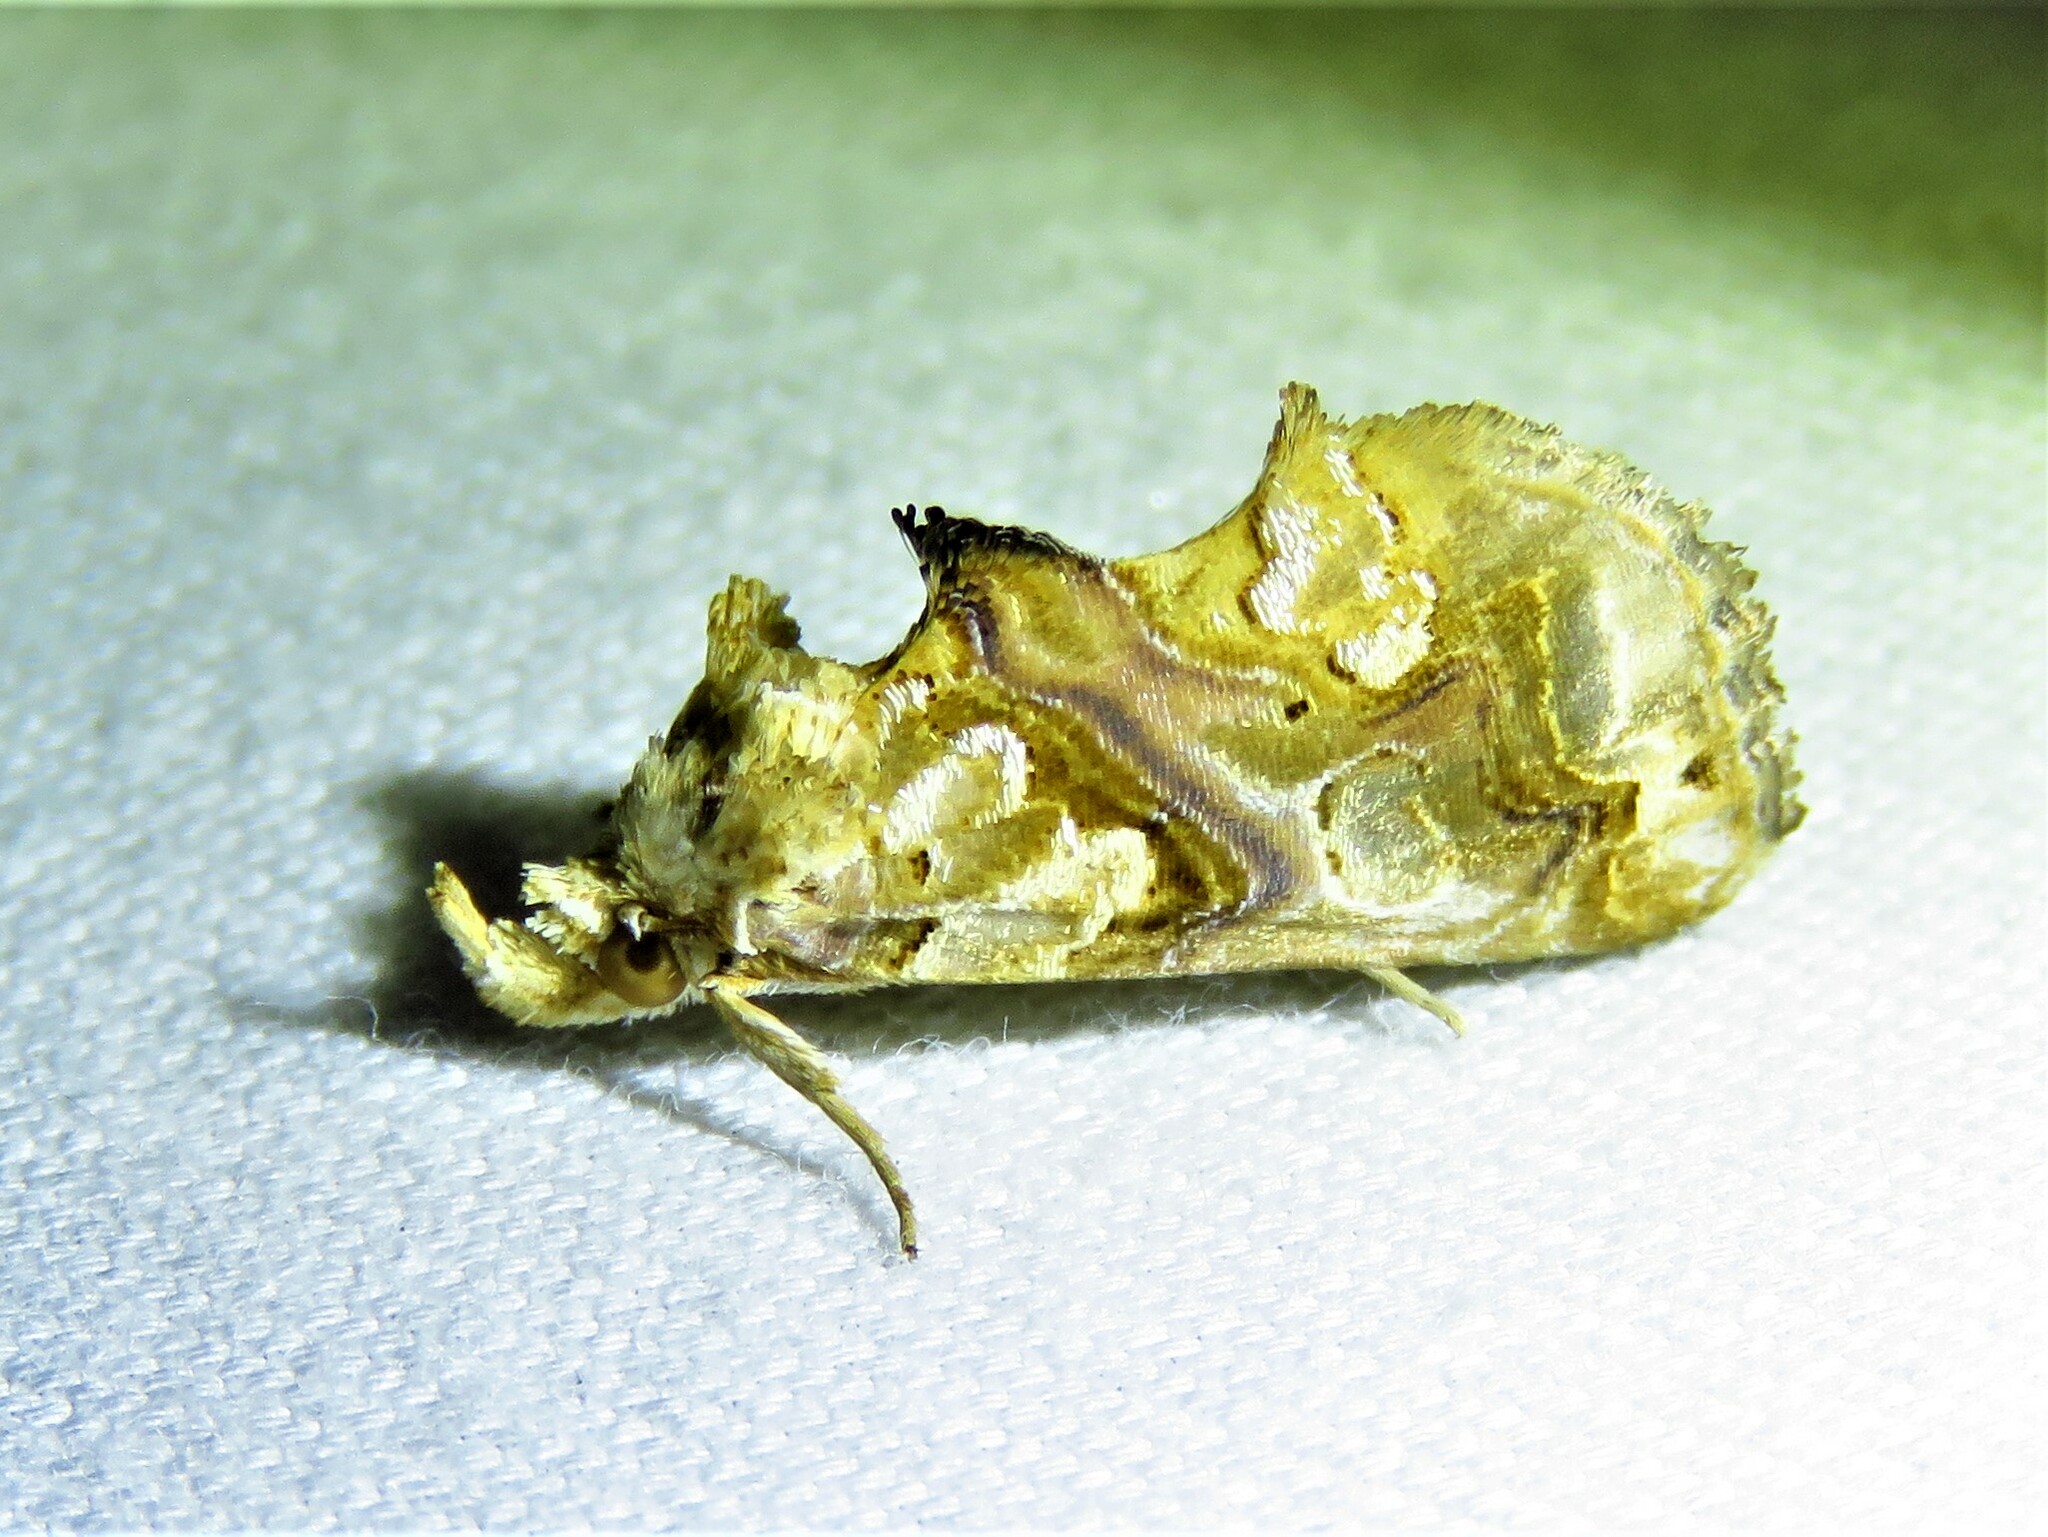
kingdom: Animalia
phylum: Arthropoda
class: Insecta
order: Lepidoptera
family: Erebidae
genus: Plusiodonta
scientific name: Plusiodonta compressipalpis
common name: Moonseed moth
